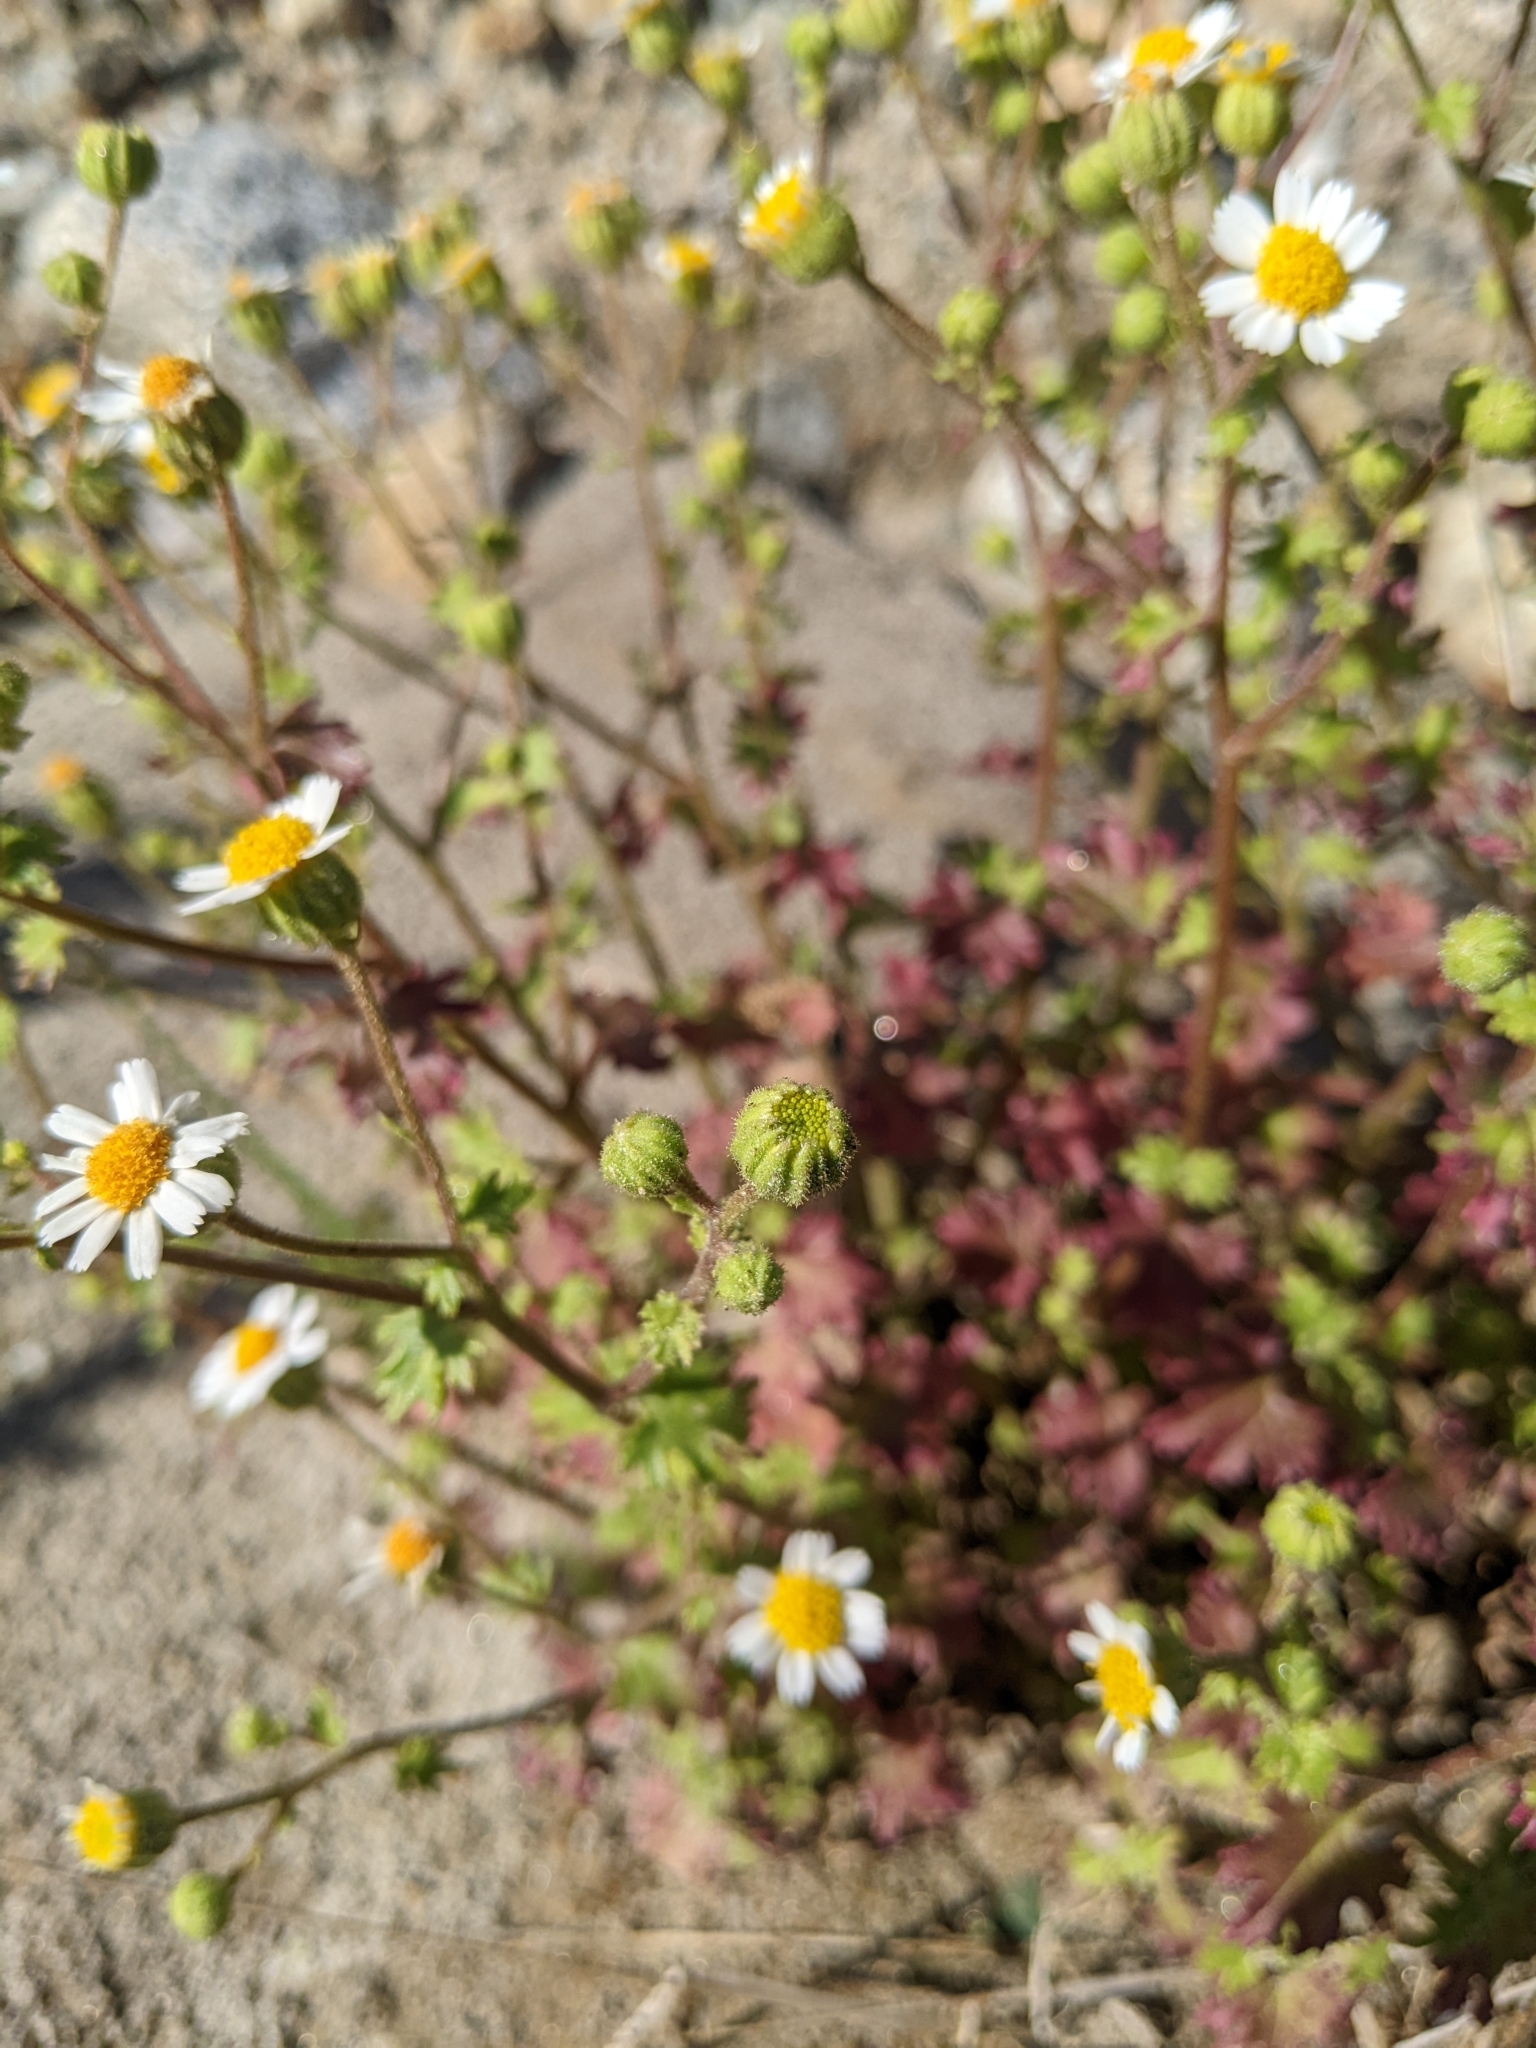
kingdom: Plantae
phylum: Tracheophyta
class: Magnoliopsida
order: Asterales
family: Asteraceae
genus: Laphamia
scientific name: Laphamia emoryi
